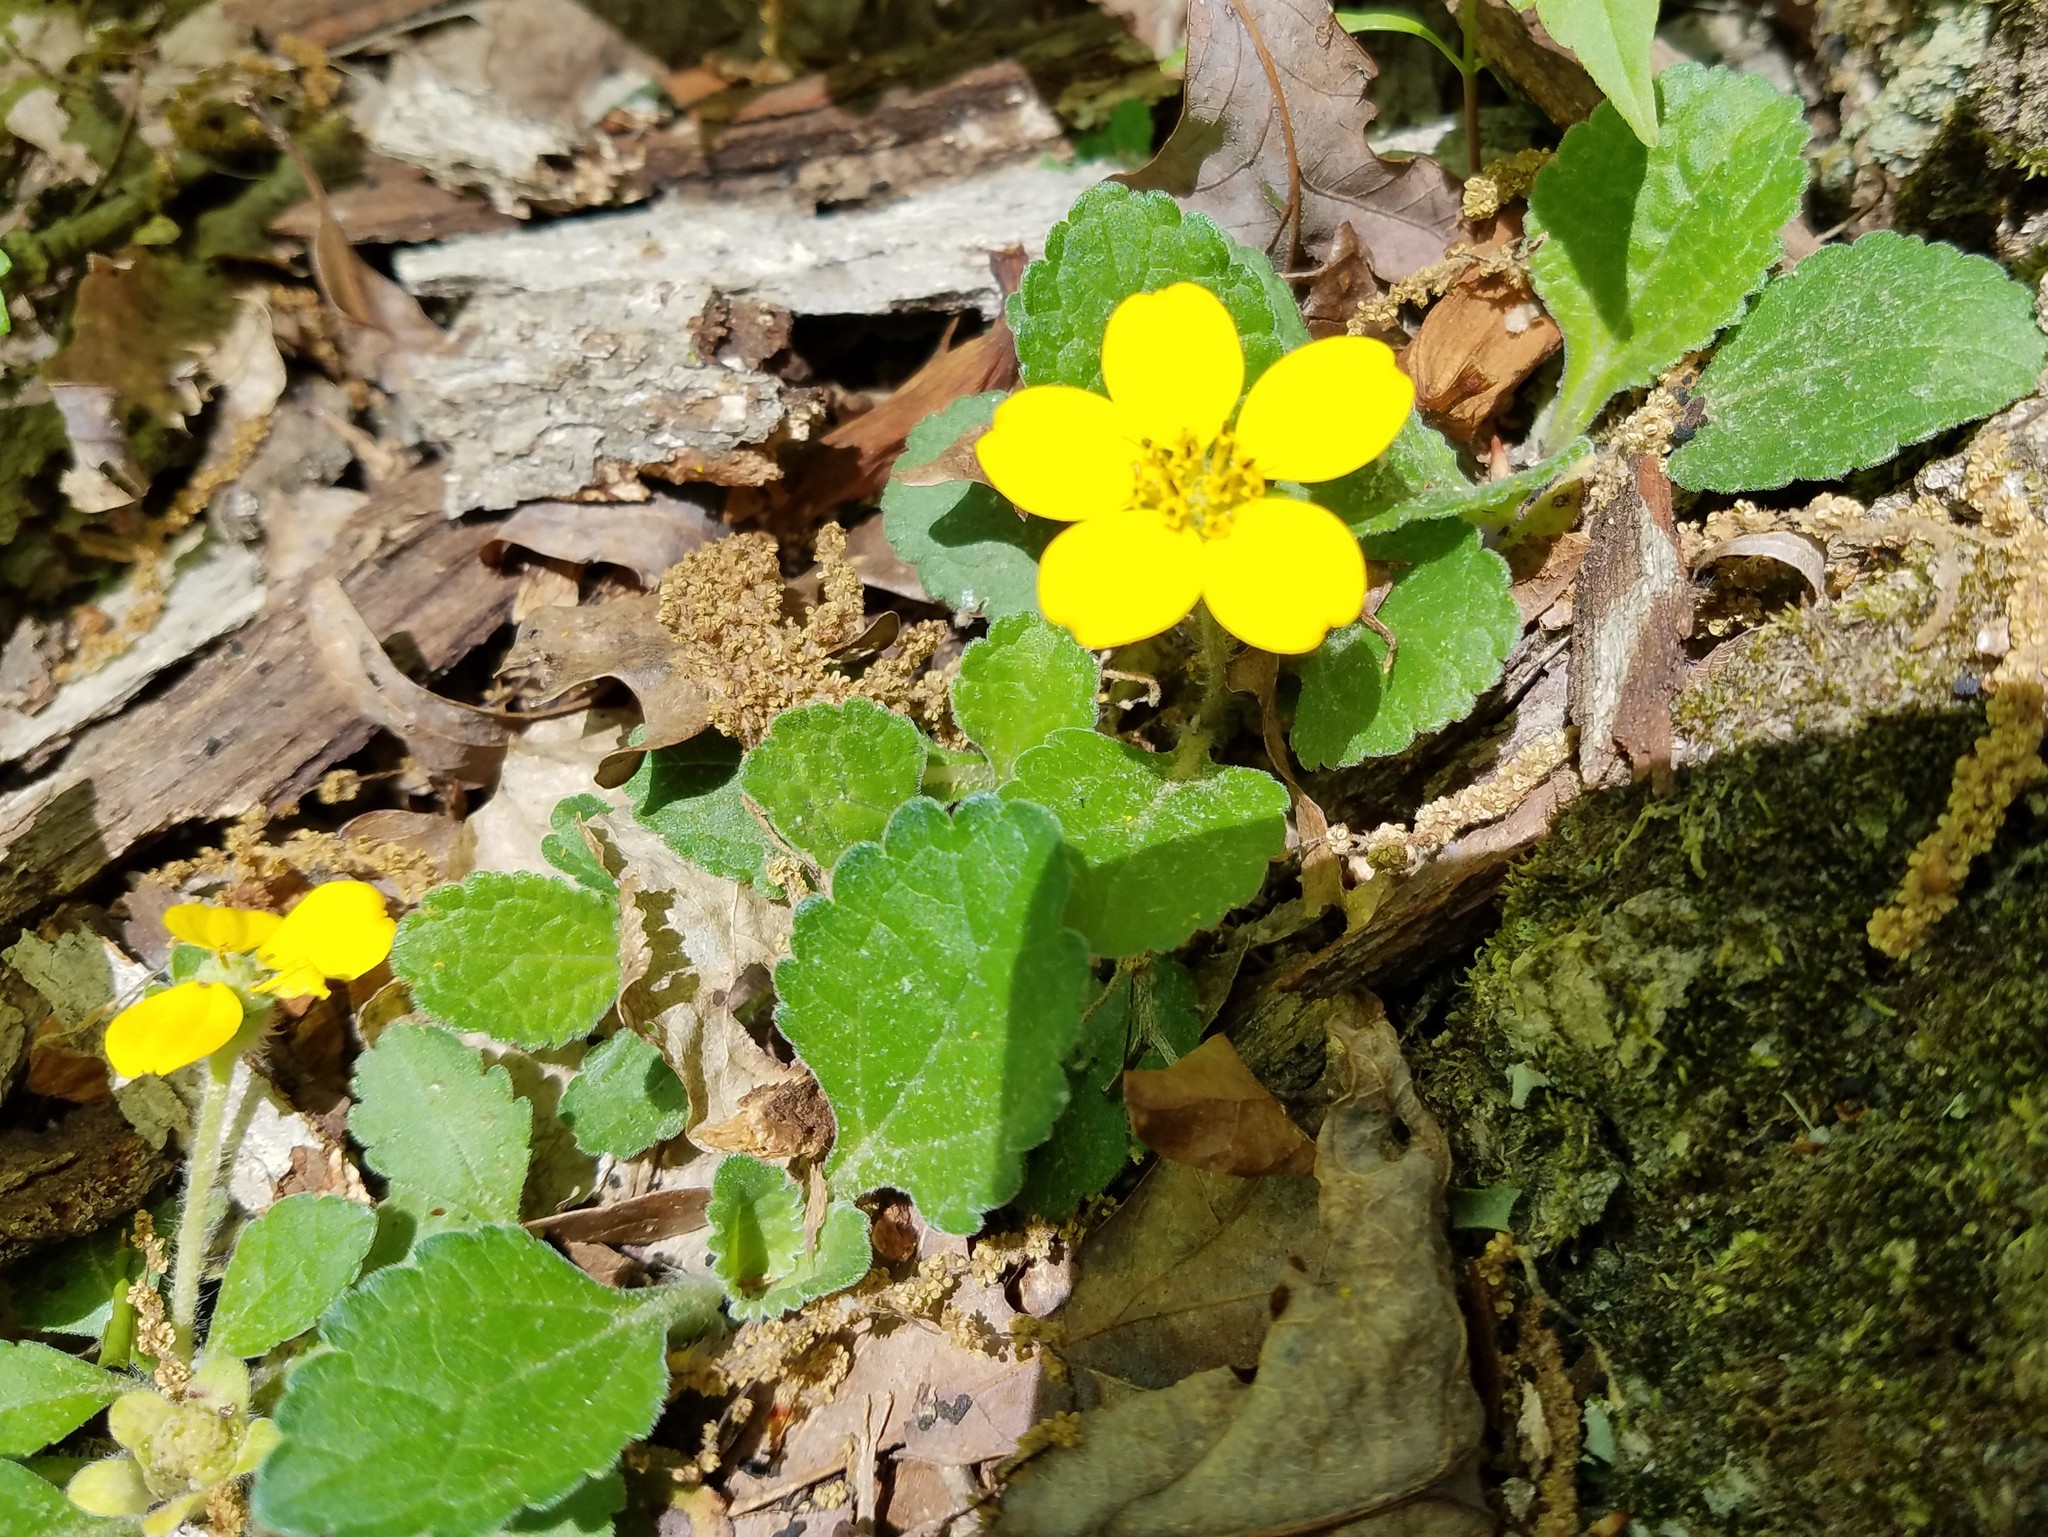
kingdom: Plantae
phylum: Tracheophyta
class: Magnoliopsida
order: Asterales
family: Asteraceae
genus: Chrysogonum
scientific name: Chrysogonum virginianum
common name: Golden-knee
